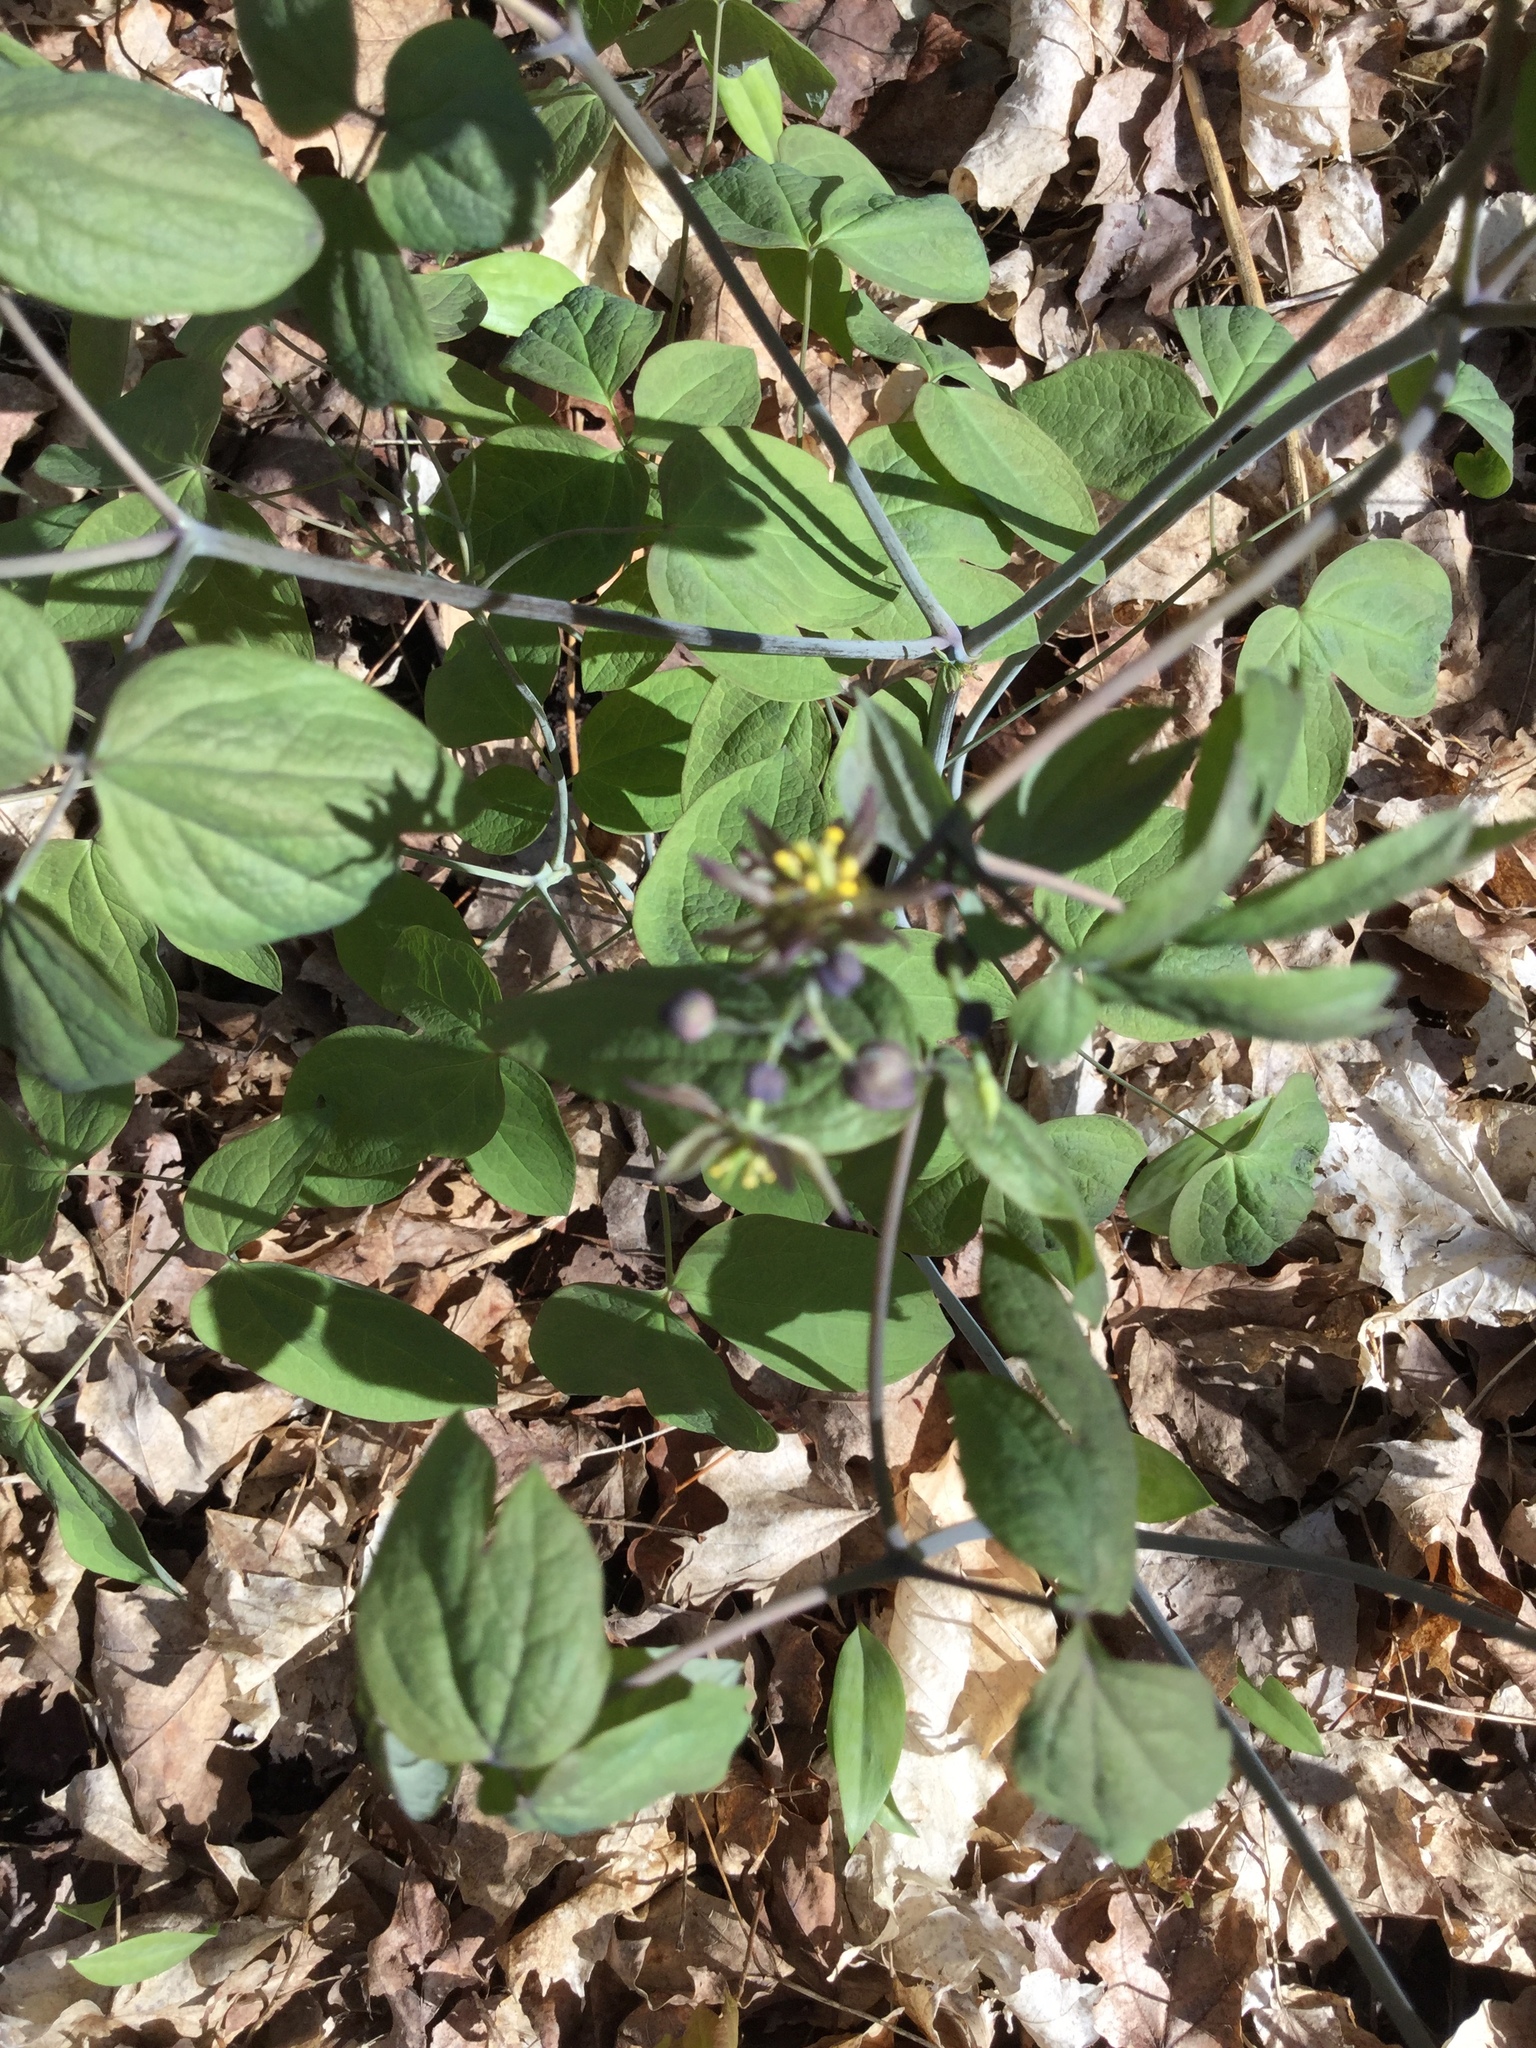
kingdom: Plantae
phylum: Tracheophyta
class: Magnoliopsida
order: Ranunculales
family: Berberidaceae
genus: Caulophyllum
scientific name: Caulophyllum giganteum
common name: Blue cohosh
